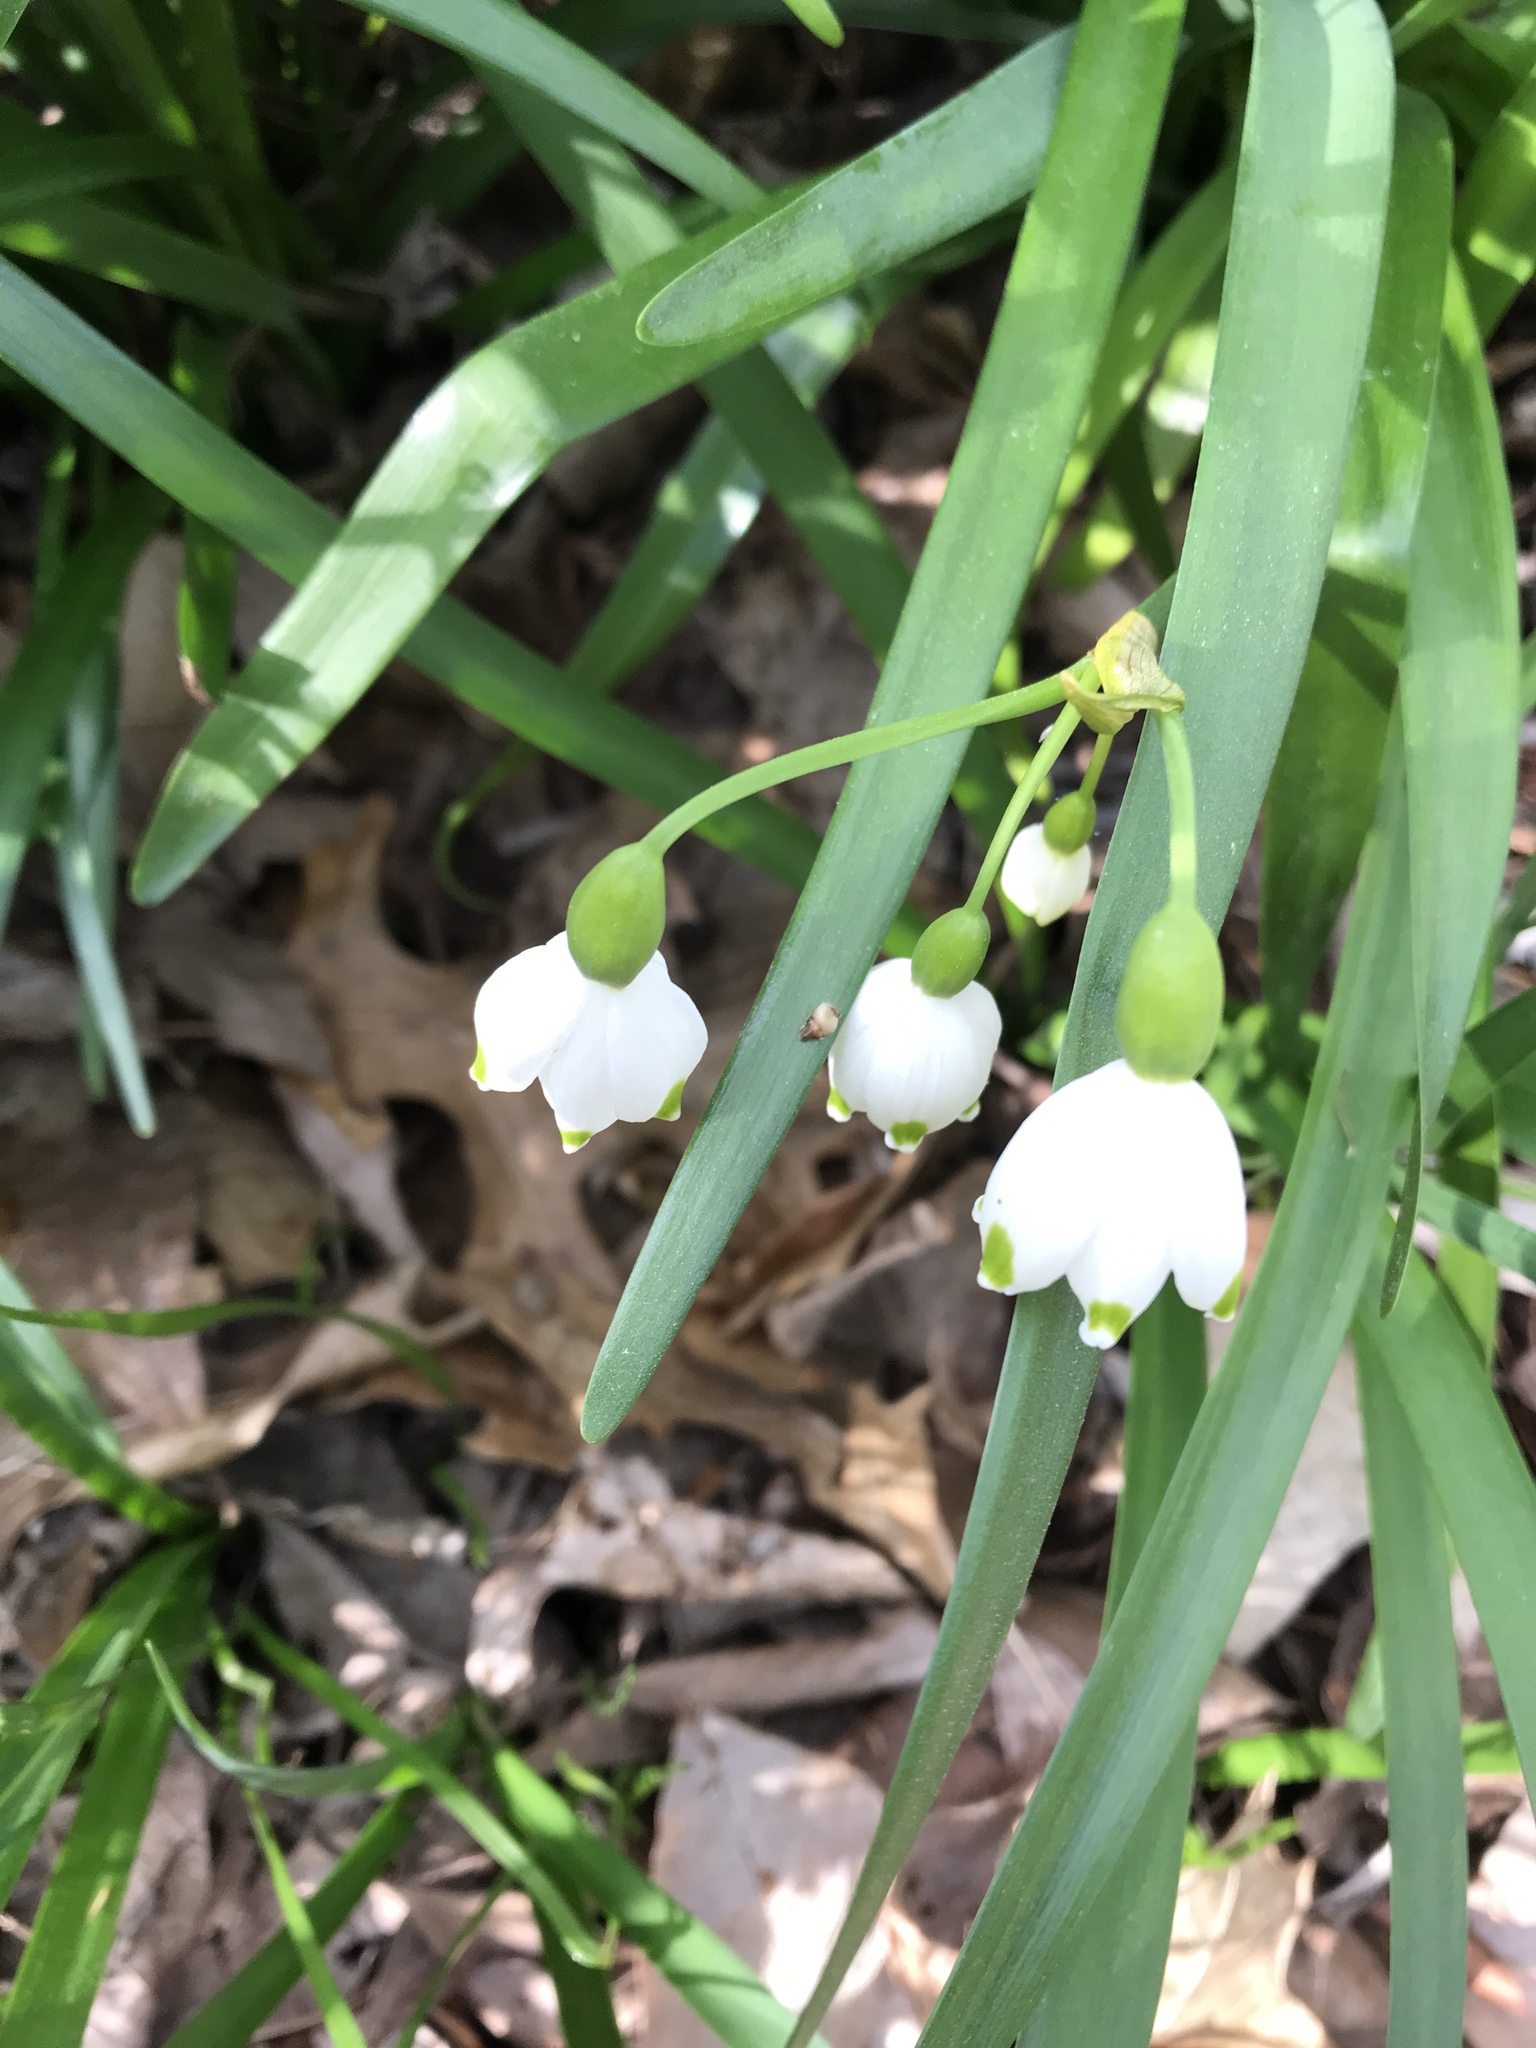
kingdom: Plantae
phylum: Tracheophyta
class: Liliopsida
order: Asparagales
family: Amaryllidaceae
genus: Leucojum
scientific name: Leucojum aestivum
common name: Summer snowflake
